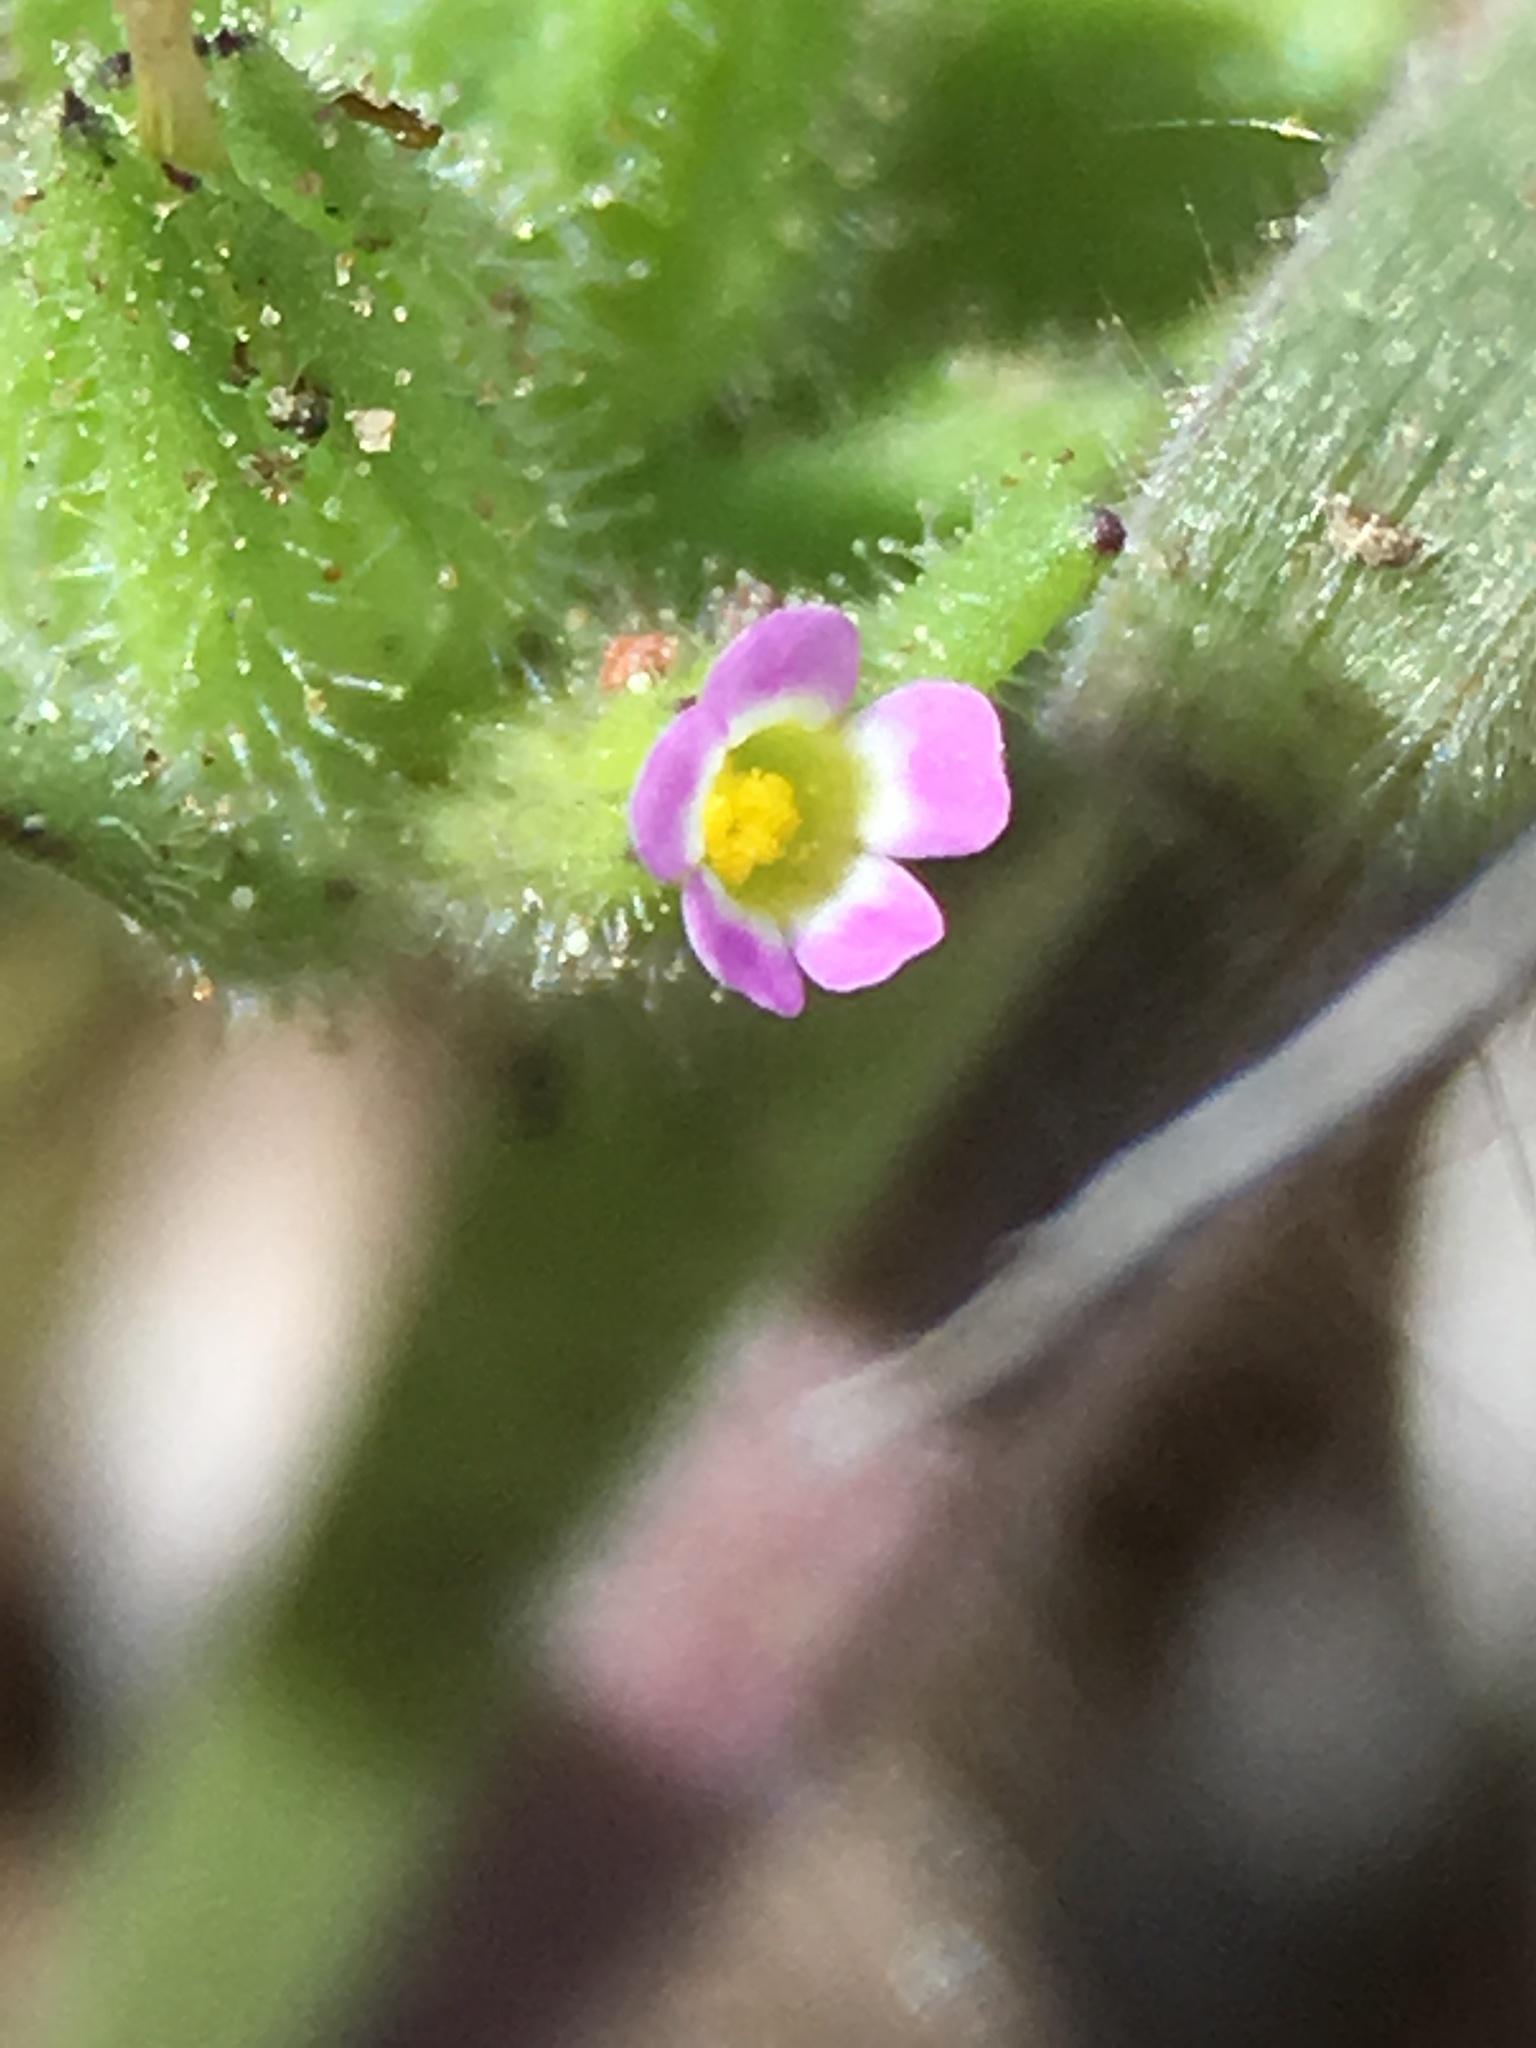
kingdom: Plantae
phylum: Tracheophyta
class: Magnoliopsida
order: Ericales
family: Polemoniaceae
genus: Phlox
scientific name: Phlox gracilis
